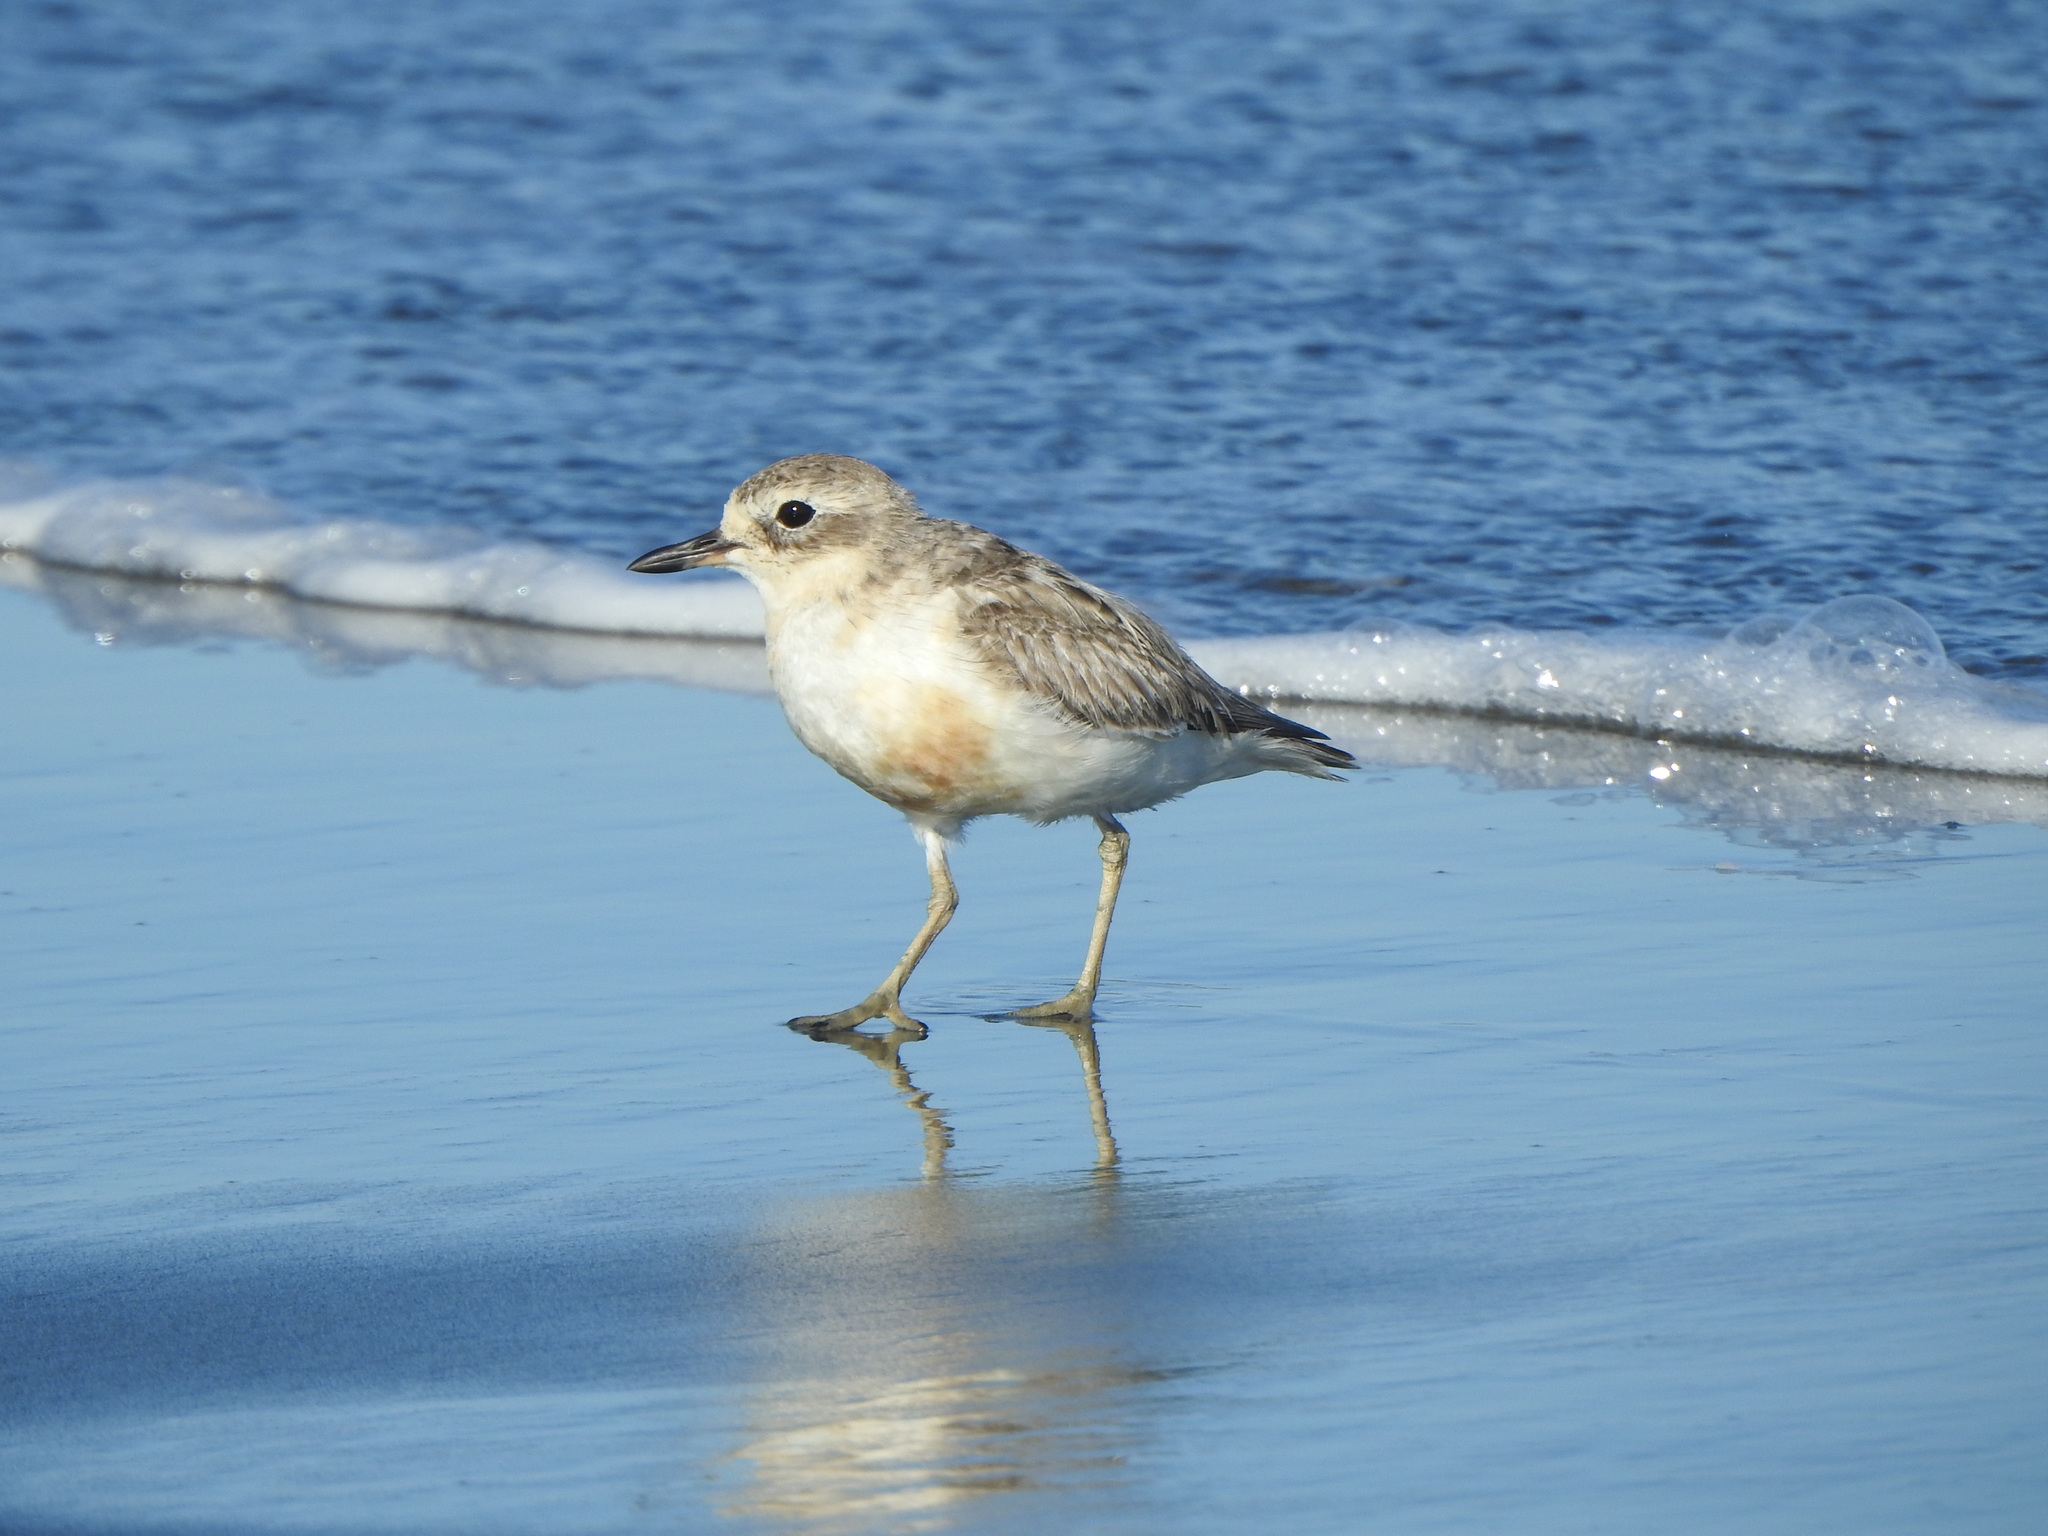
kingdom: Animalia
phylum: Chordata
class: Aves
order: Charadriiformes
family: Charadriidae
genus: Anarhynchus
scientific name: Anarhynchus
